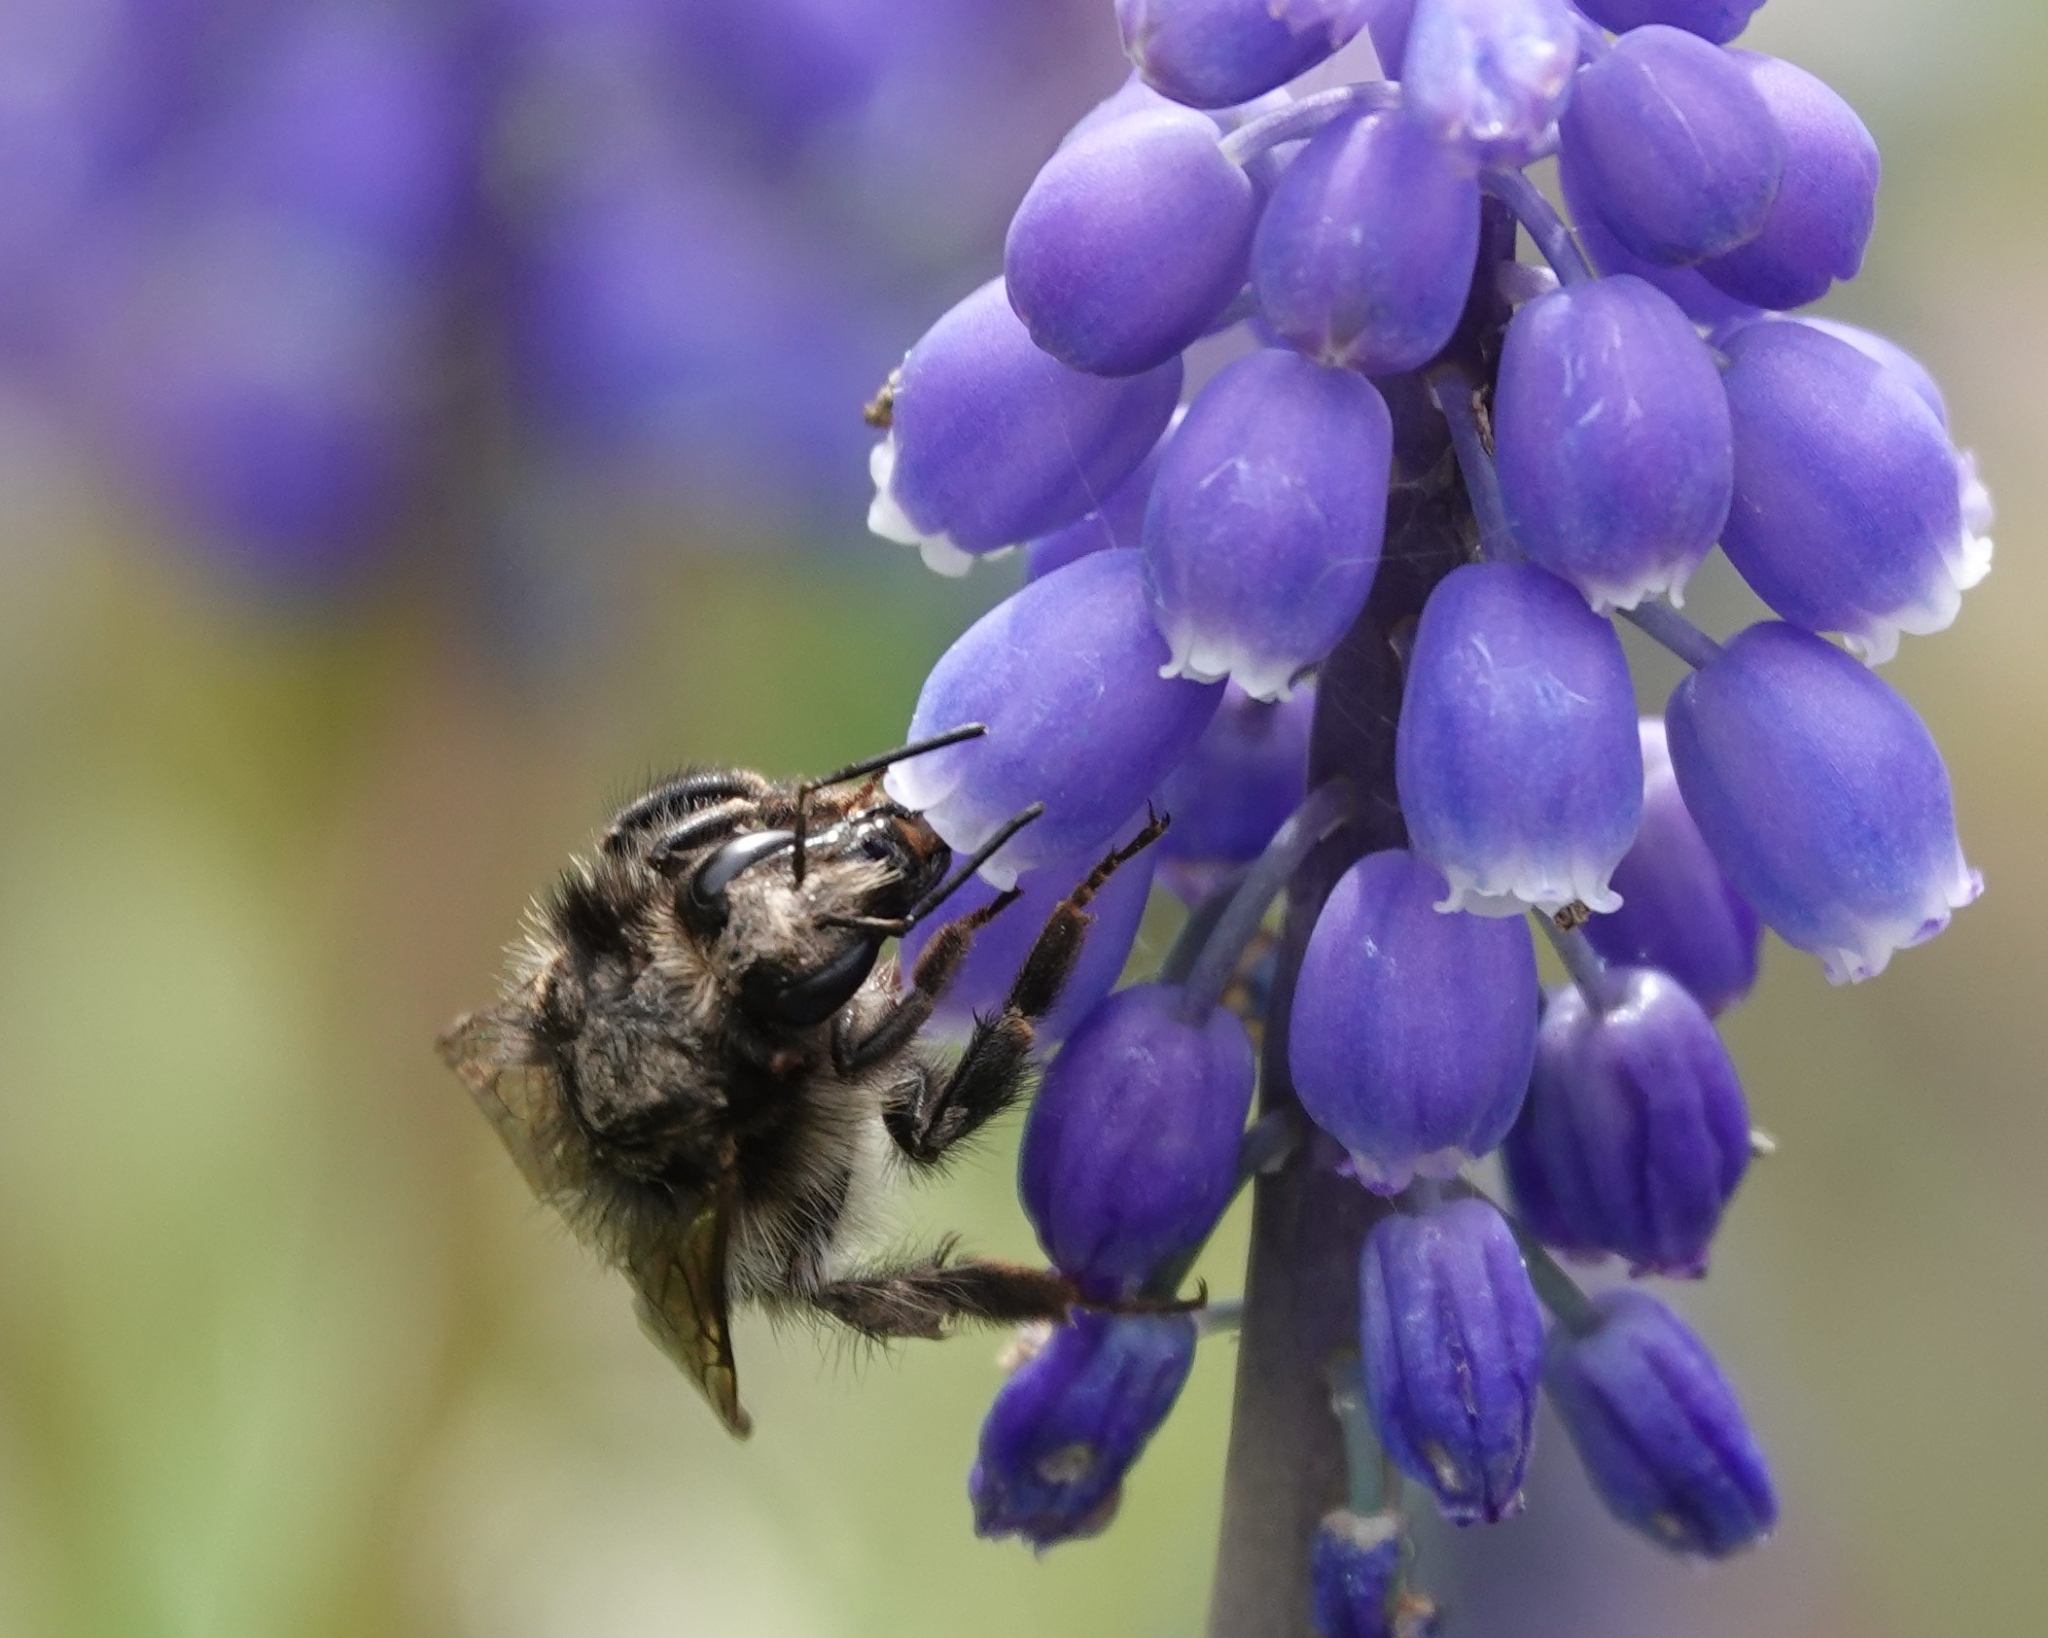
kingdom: Animalia
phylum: Arthropoda
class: Insecta
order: Hymenoptera
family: Apidae
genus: Bombus
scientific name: Bombus pascuorum
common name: Common carder bee
